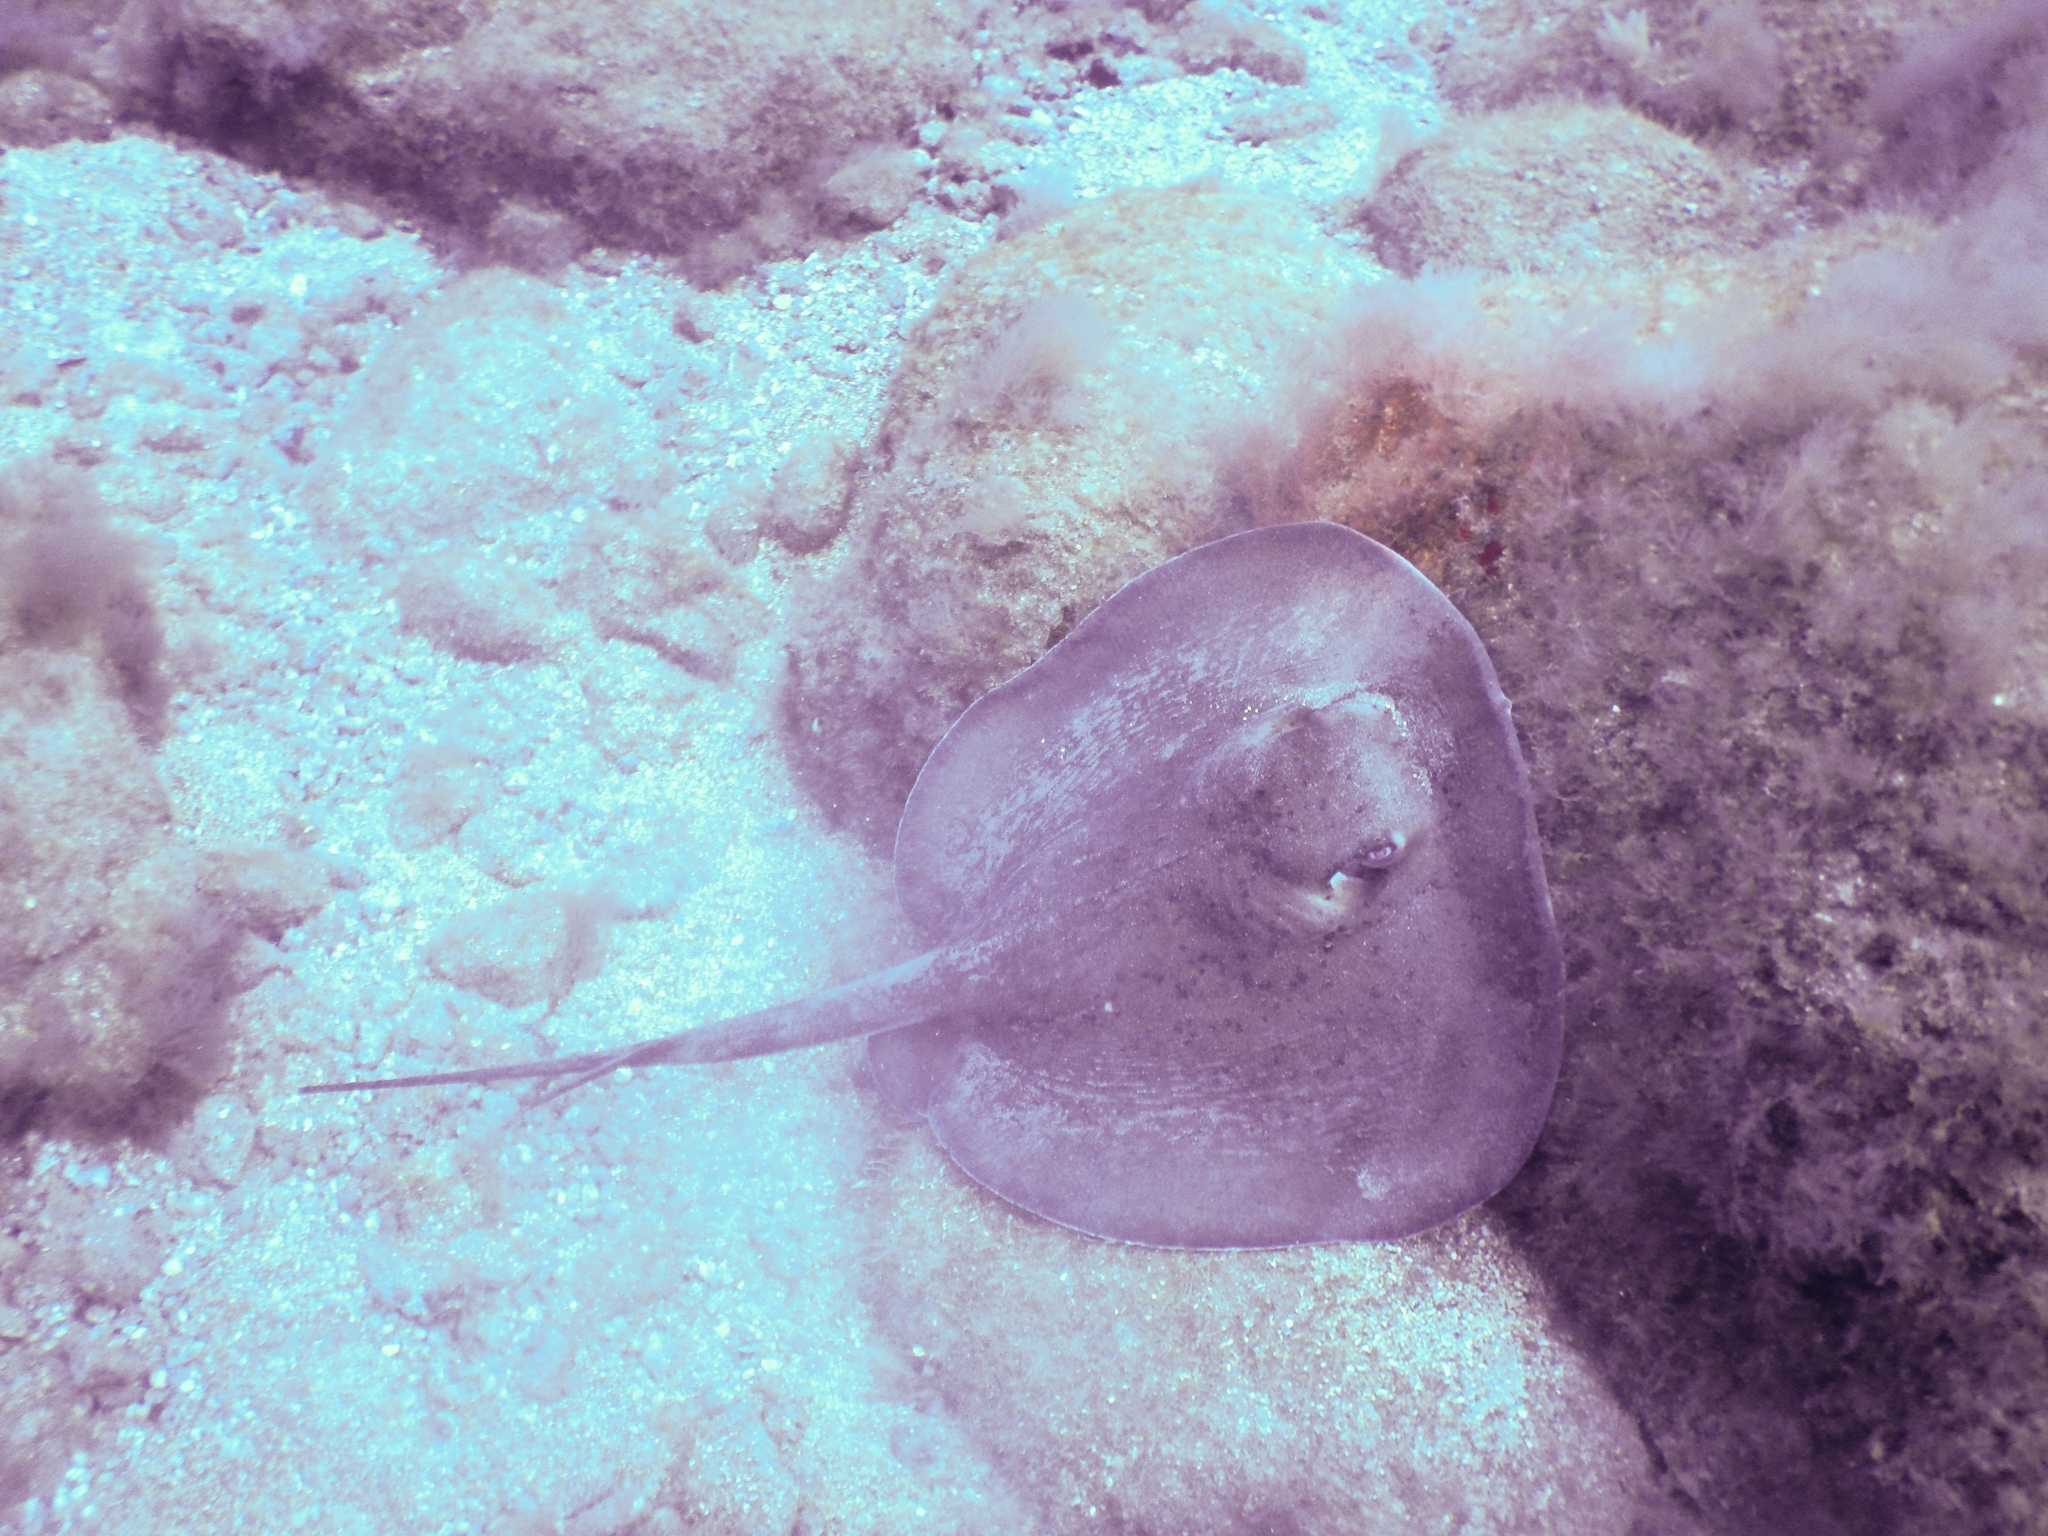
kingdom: Animalia
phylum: Chordata
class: Elasmobranchii
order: Myliobatiformes
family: Dasyatidae
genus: Taeniura
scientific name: Taeniura grabata
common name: Round stingray
